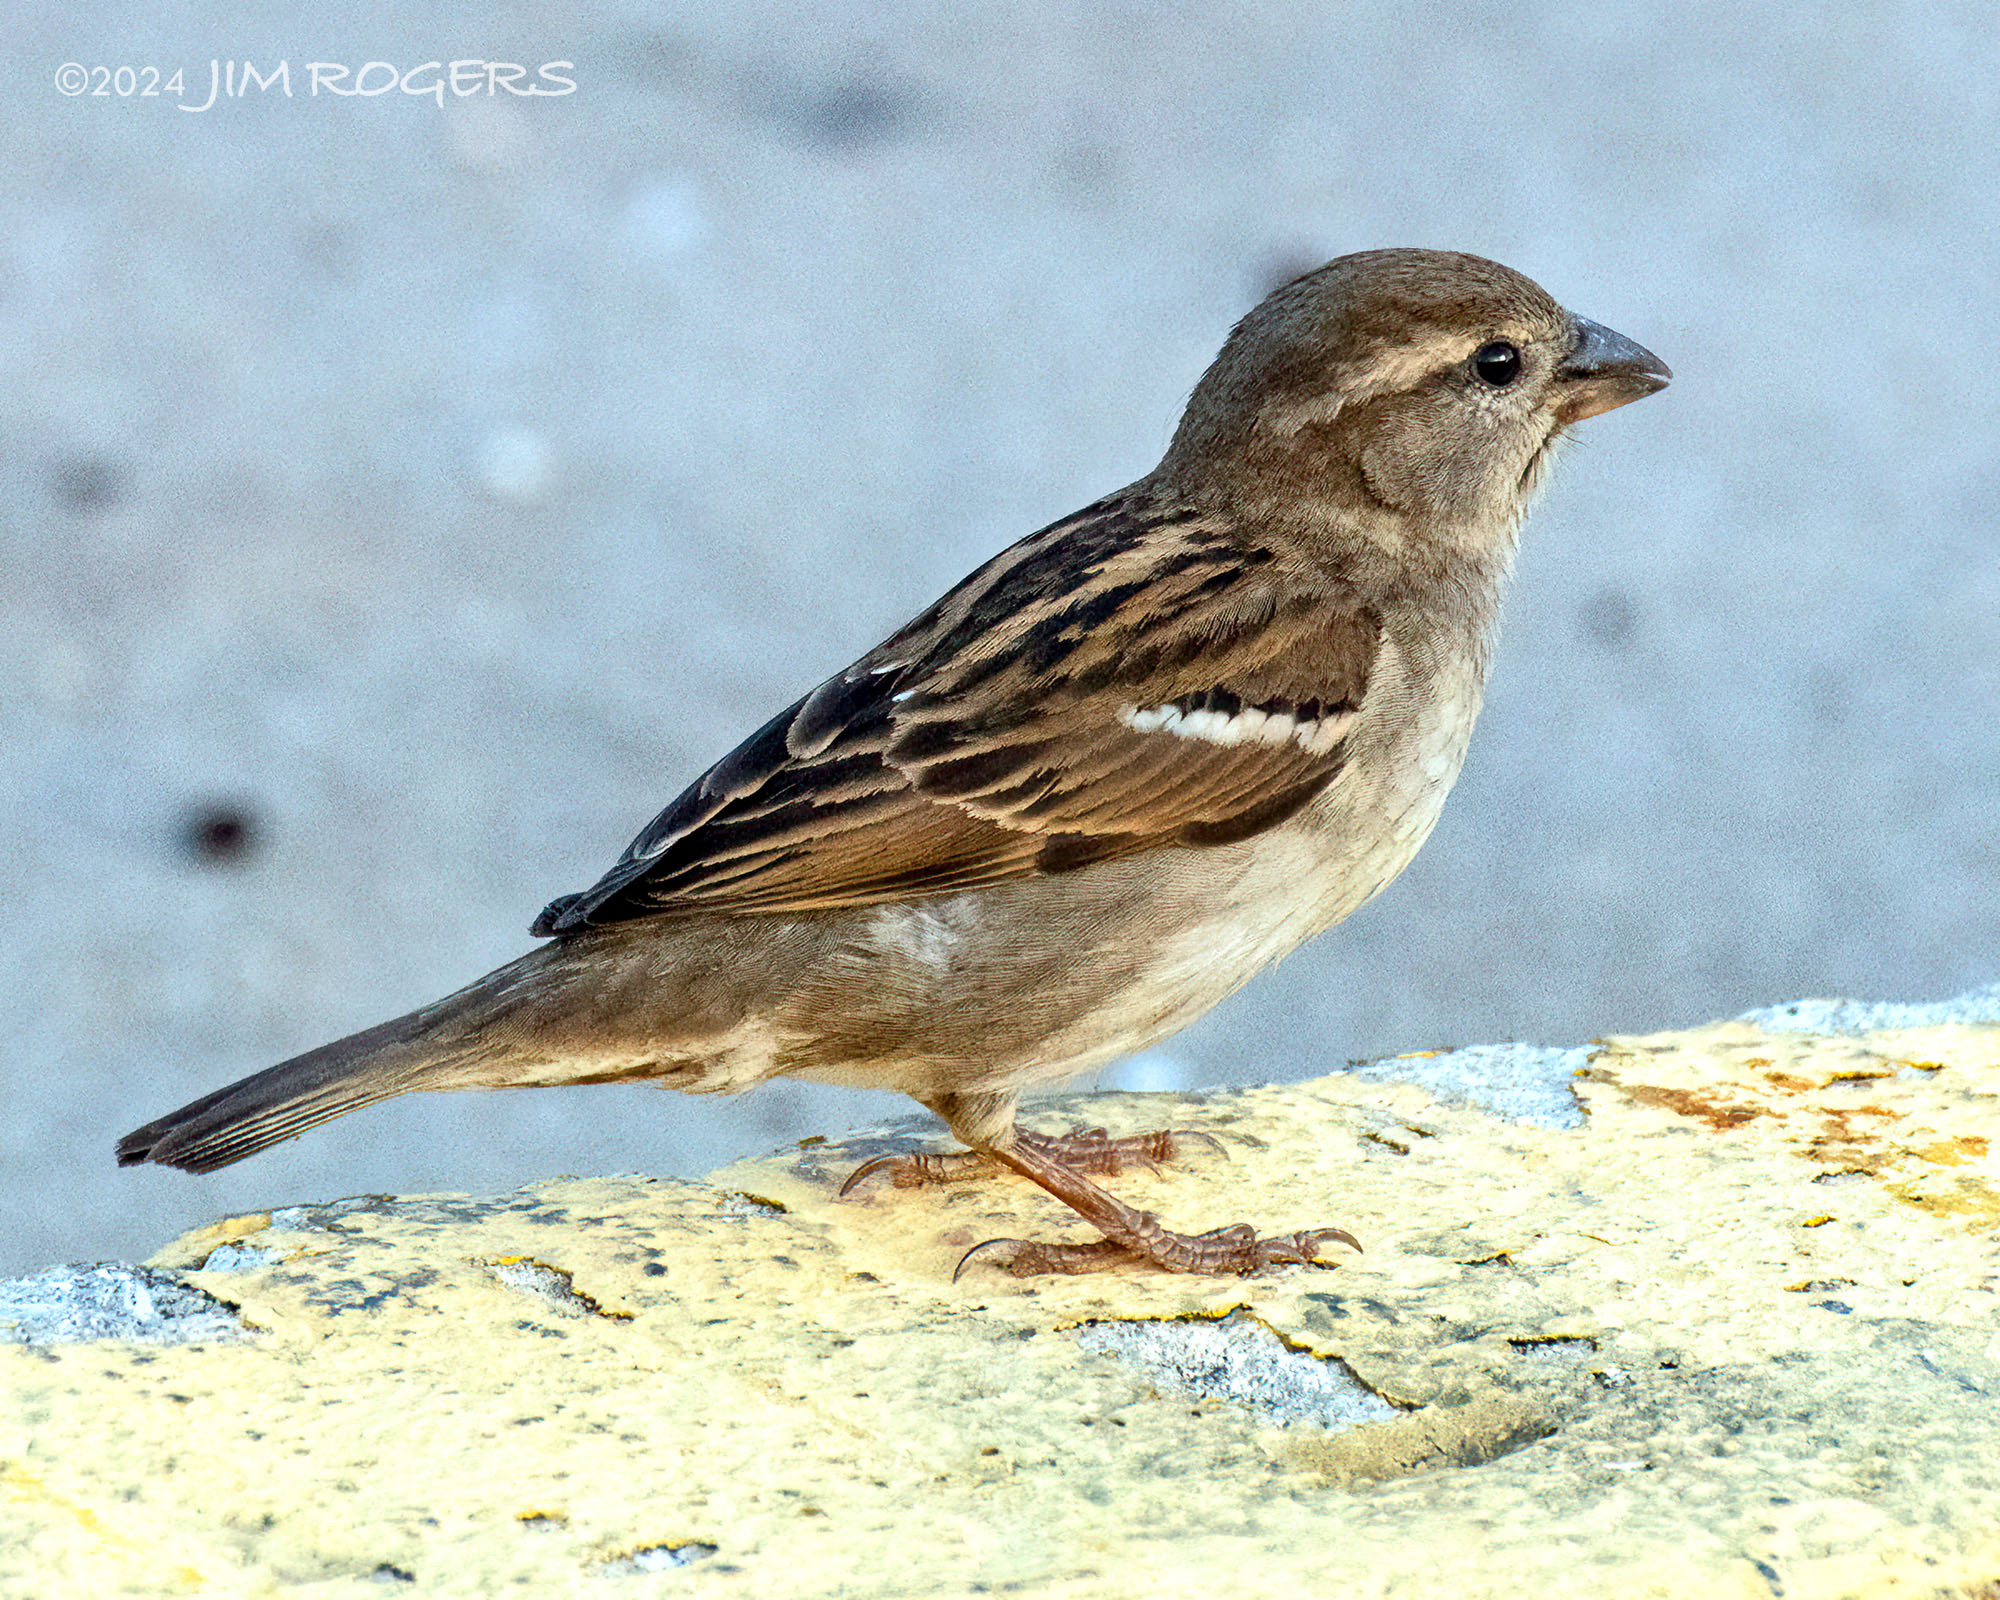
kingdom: Animalia
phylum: Chordata
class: Aves
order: Passeriformes
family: Passeridae
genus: Passer
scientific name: Passer domesticus
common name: House sparrow
